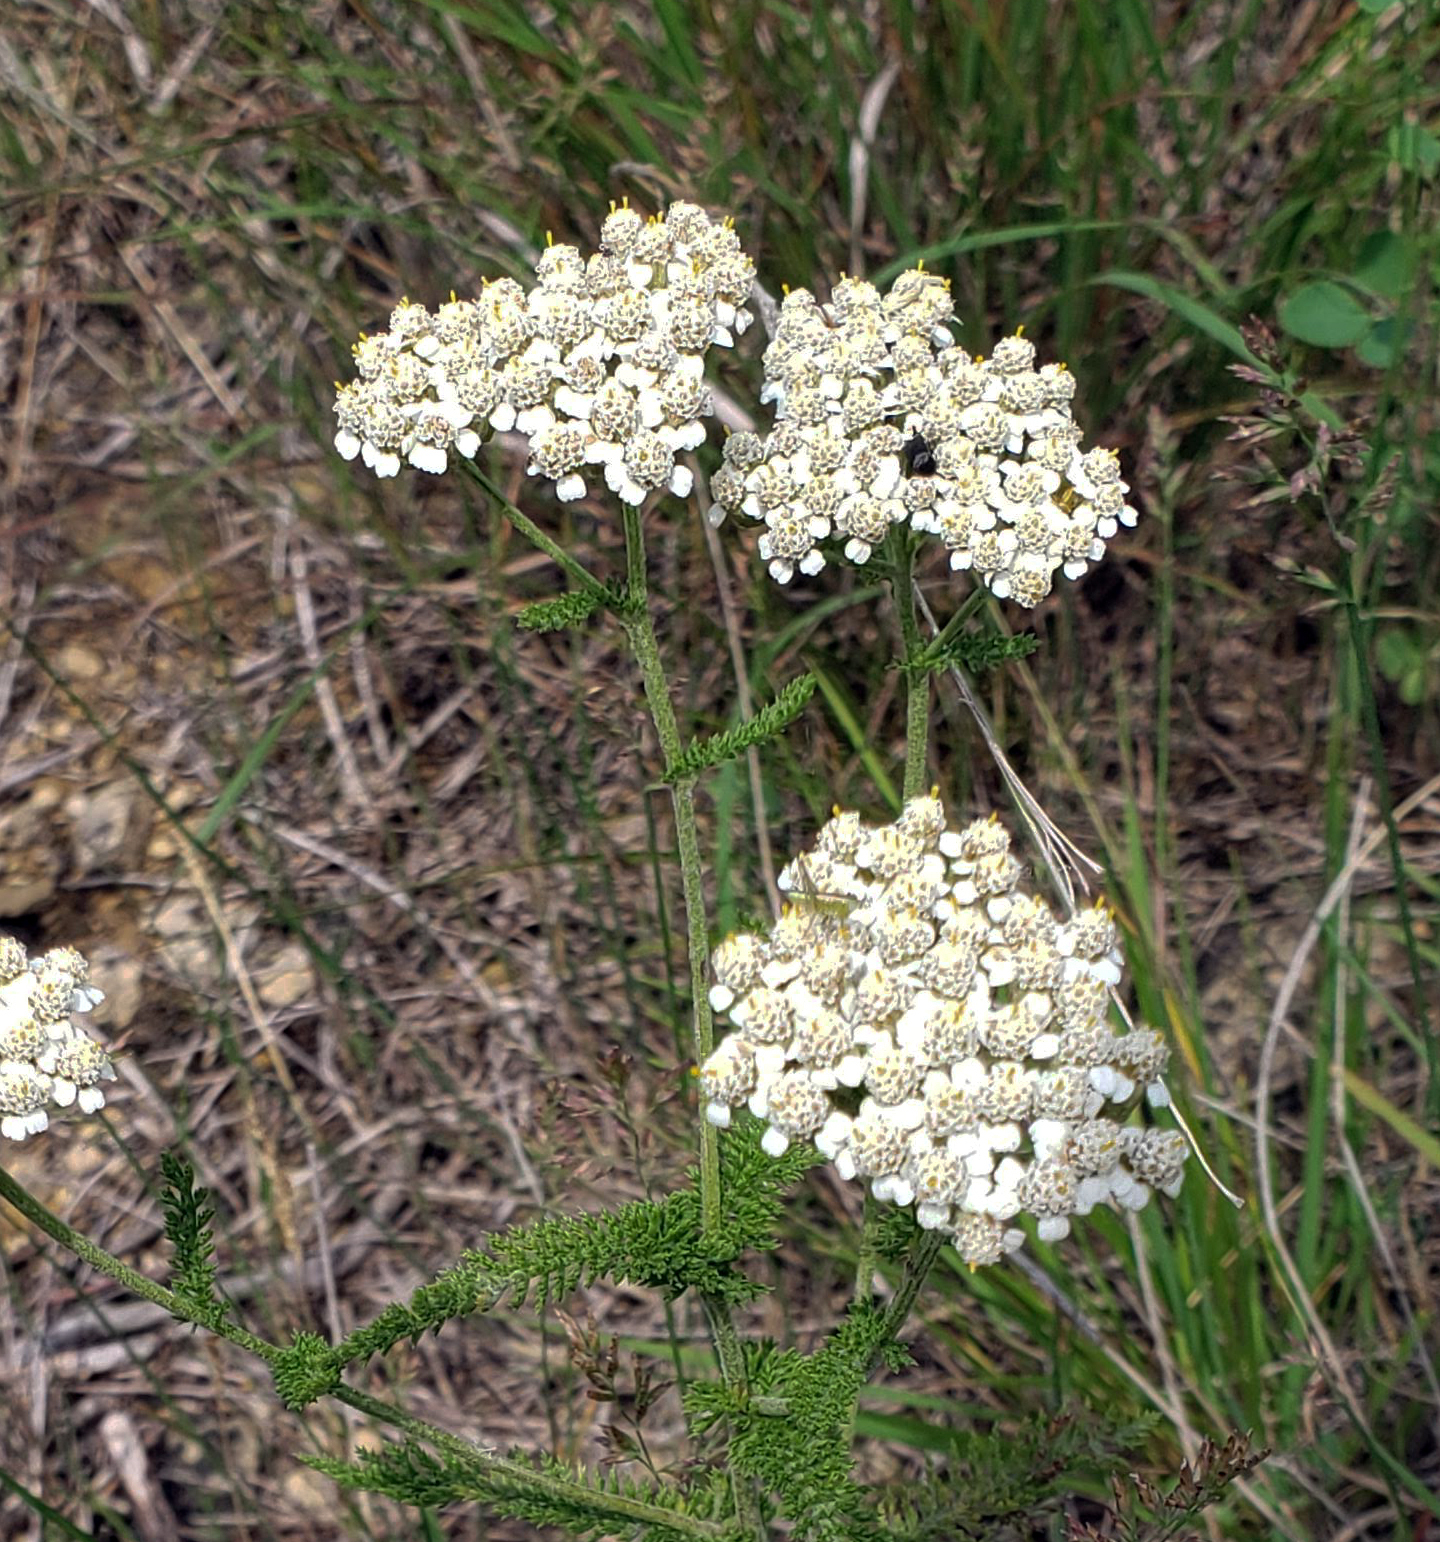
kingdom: Plantae
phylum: Tracheophyta
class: Magnoliopsida
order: Asterales
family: Asteraceae
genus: Achillea
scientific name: Achillea millefolium
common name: Yarrow
